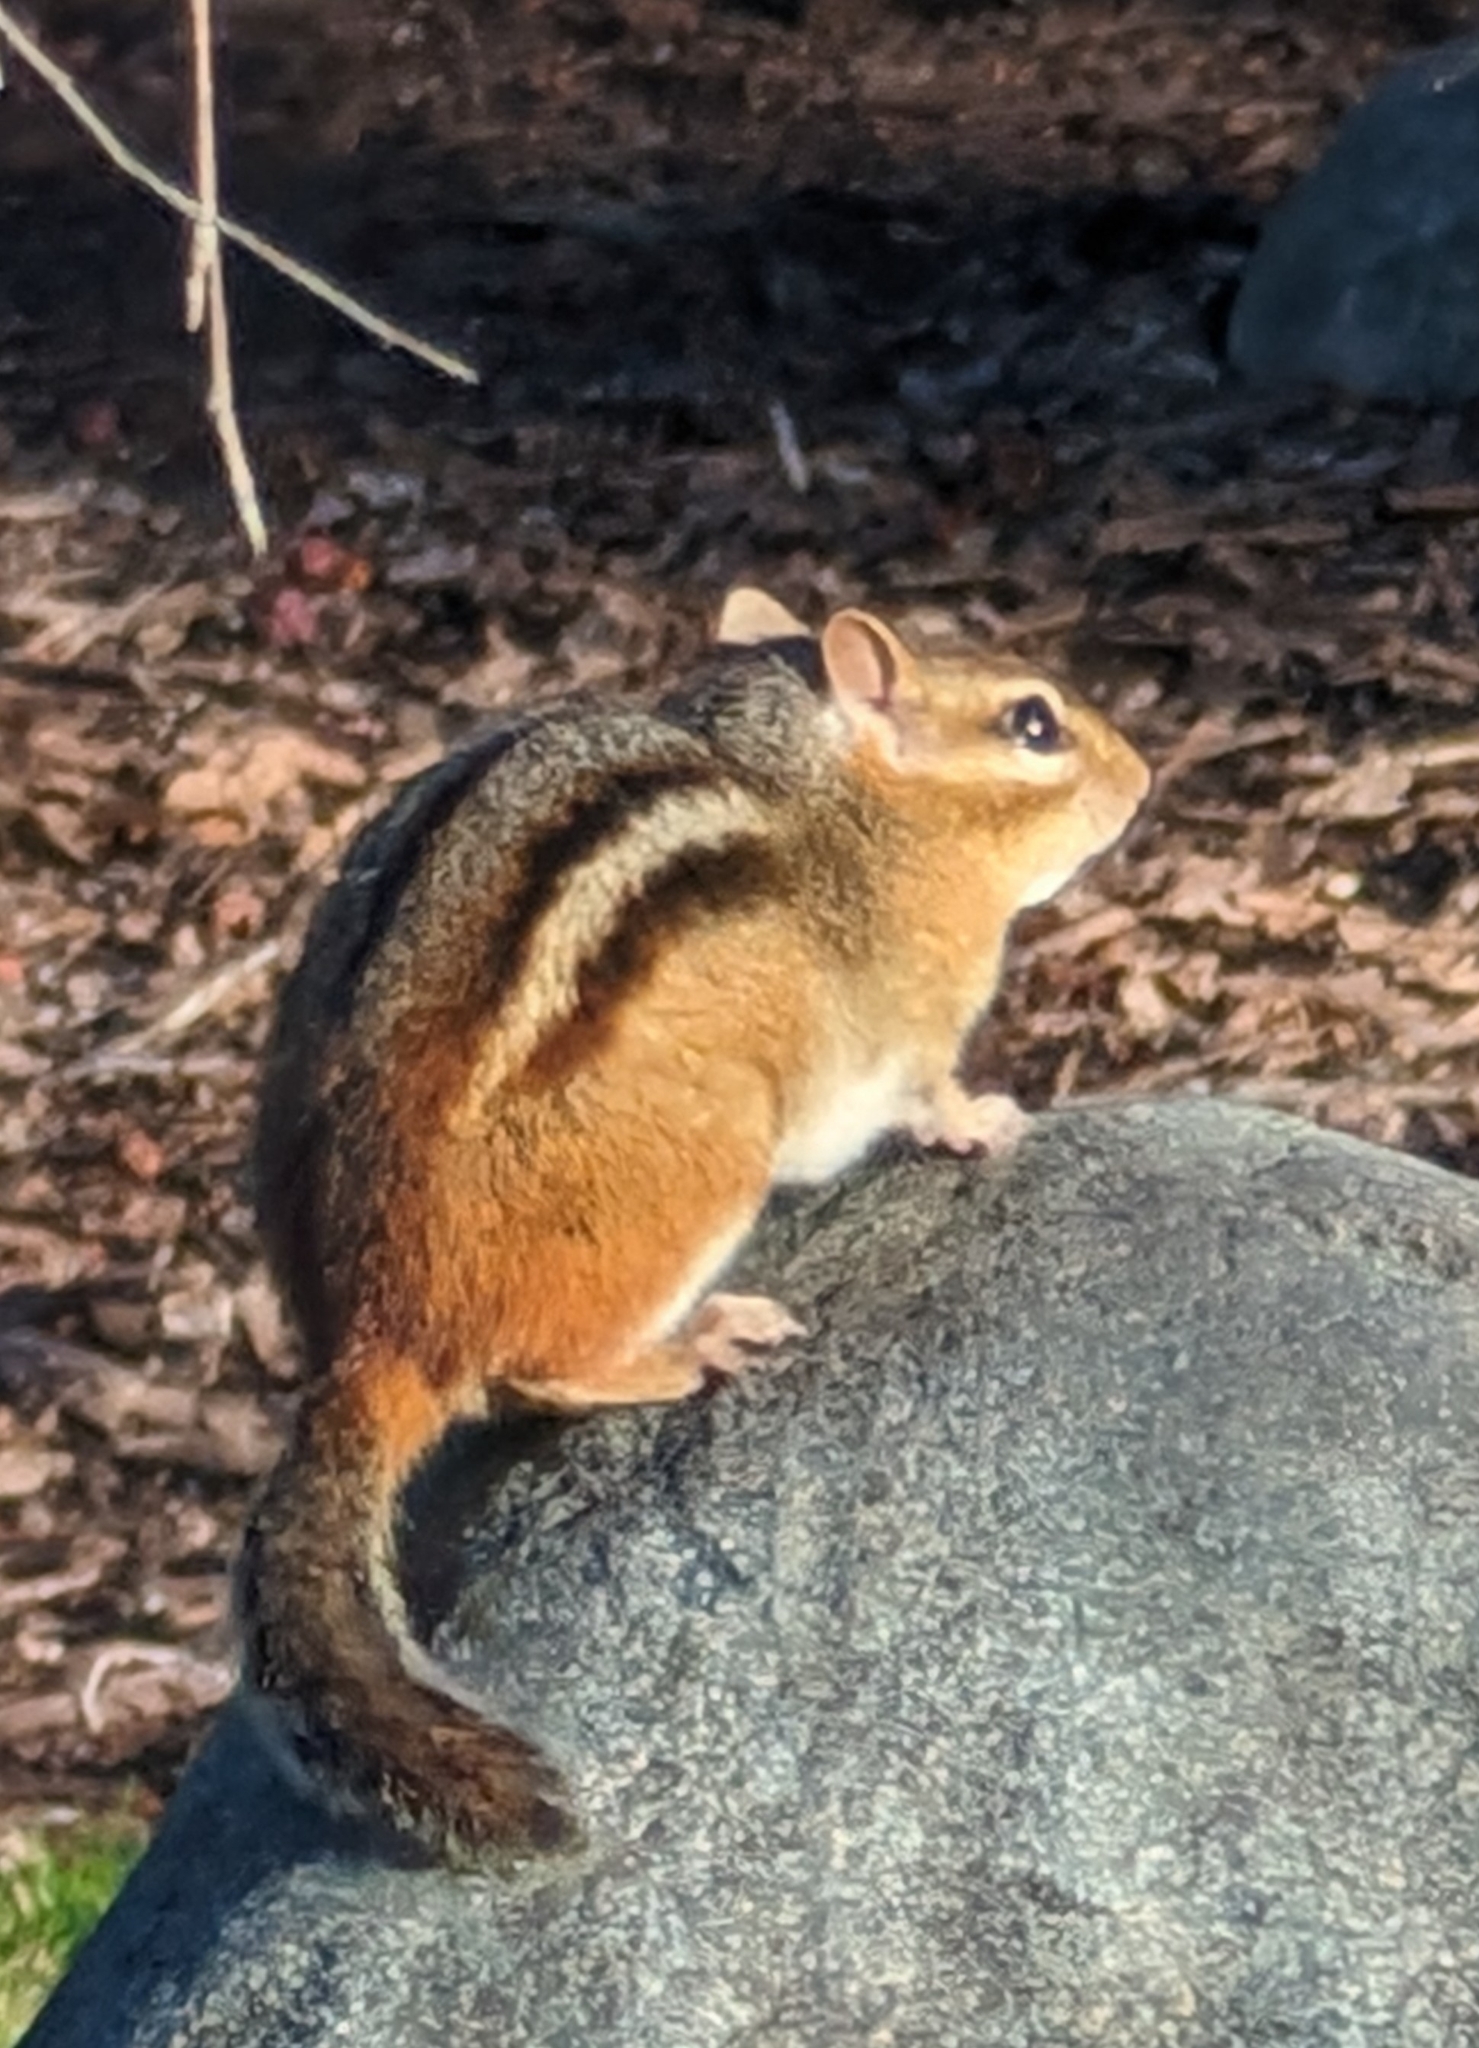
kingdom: Animalia
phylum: Chordata
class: Mammalia
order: Rodentia
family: Sciuridae
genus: Tamias
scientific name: Tamias striatus
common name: Eastern chipmunk
